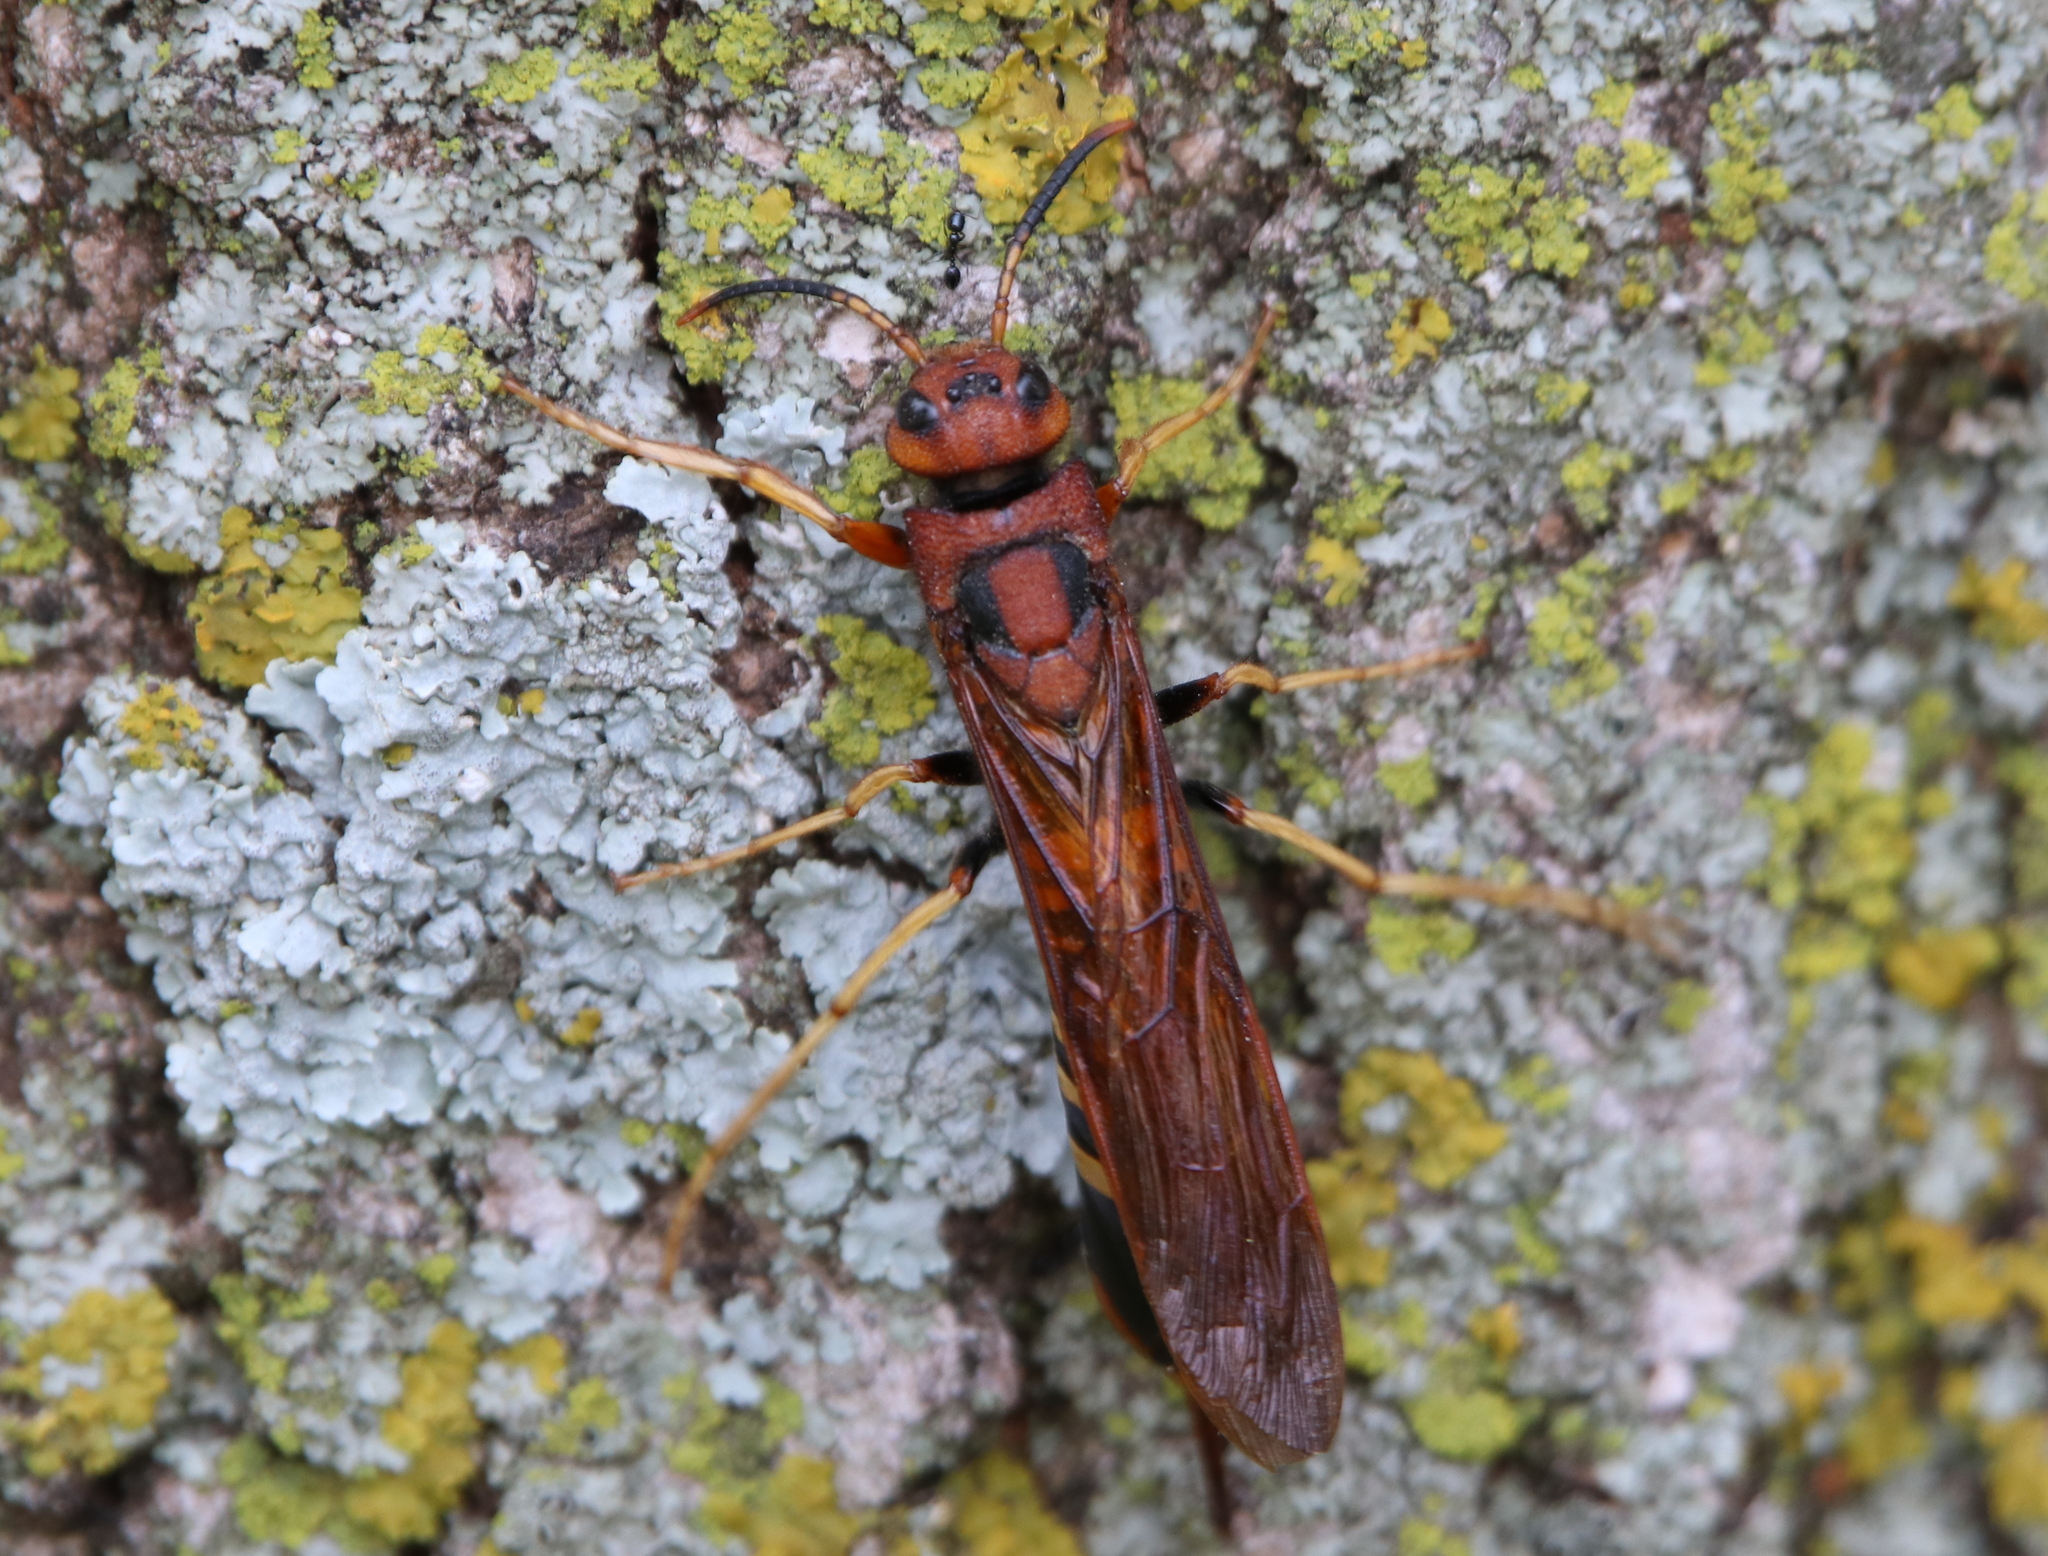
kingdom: Animalia
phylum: Arthropoda
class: Insecta
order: Hymenoptera
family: Siricidae
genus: Tremex
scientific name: Tremex columba
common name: Wasp
